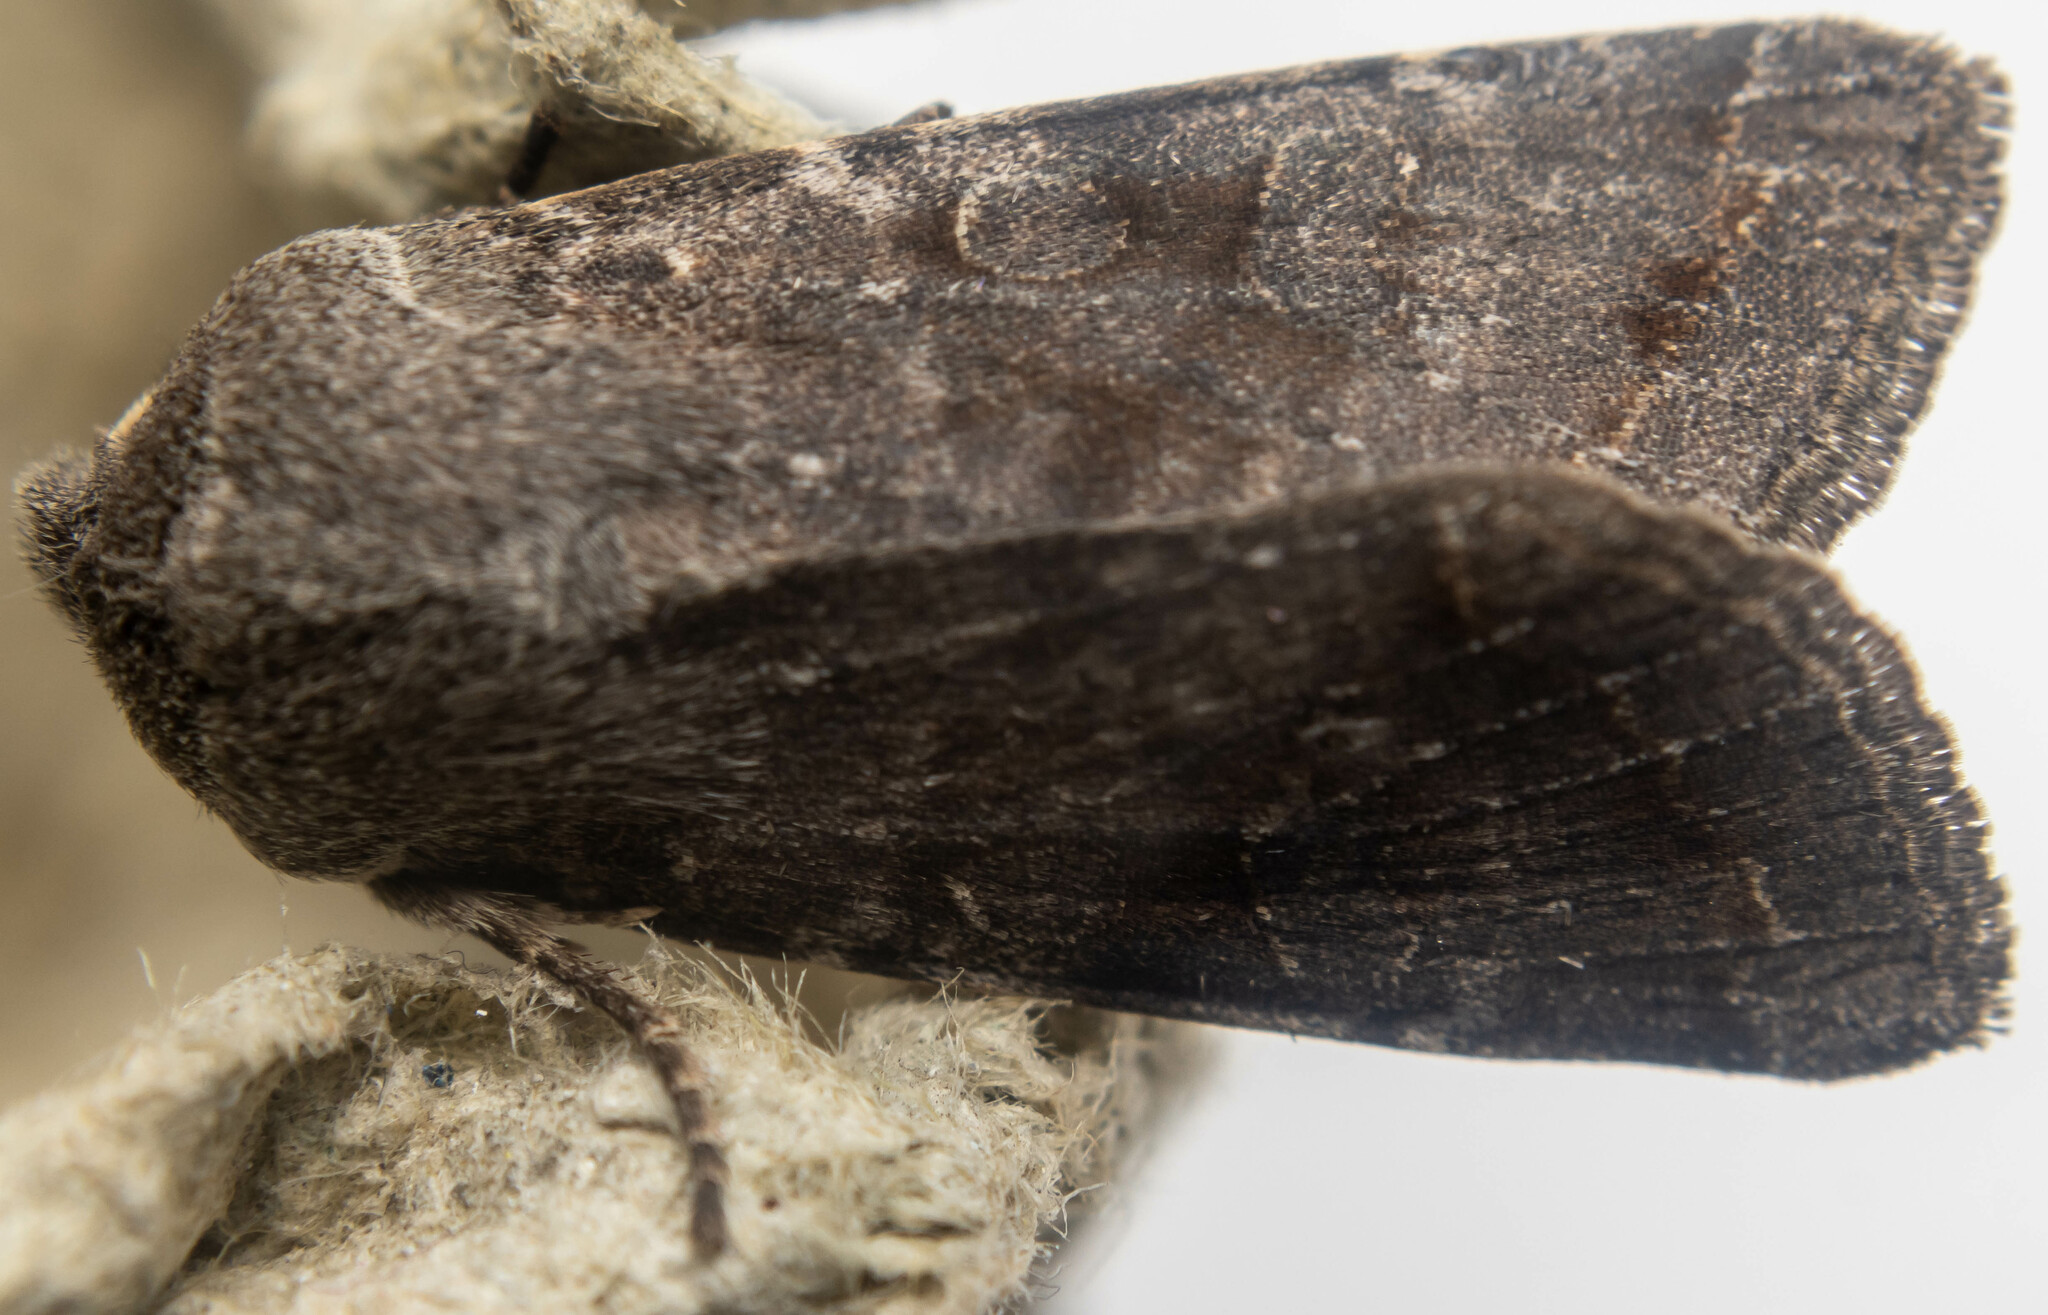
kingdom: Animalia
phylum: Arthropoda
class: Insecta
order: Lepidoptera
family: Noctuidae
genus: Orthosia
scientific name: Orthosia incerta
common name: Clouded drab
